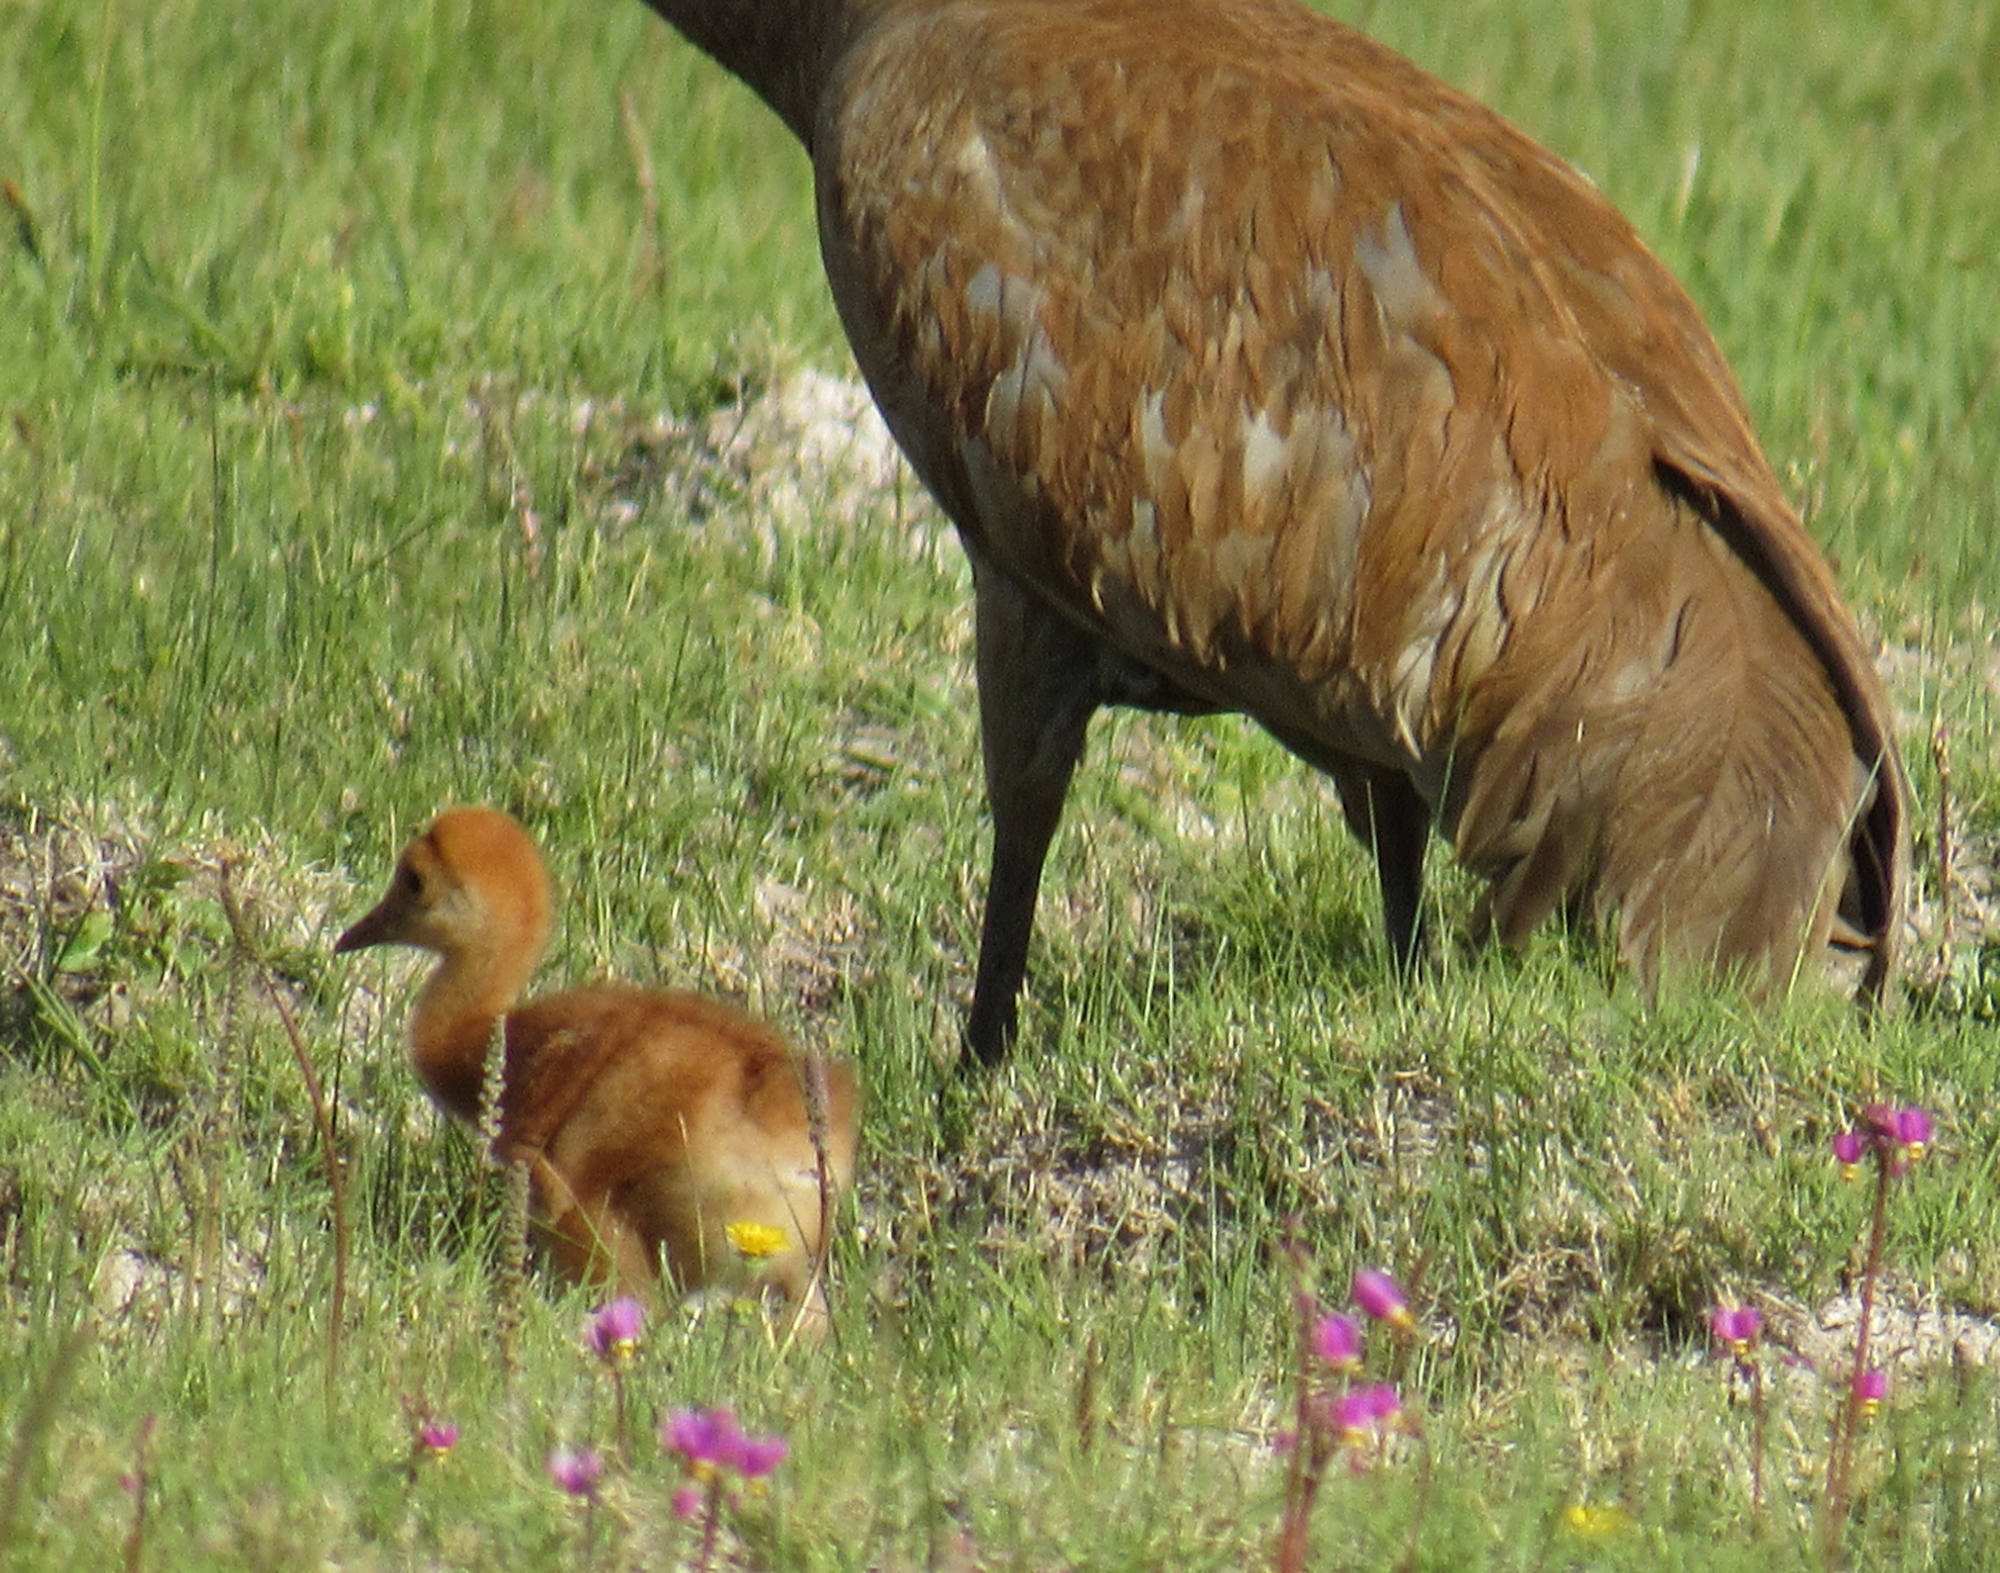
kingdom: Animalia
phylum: Chordata
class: Aves
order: Gruiformes
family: Gruidae
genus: Grus
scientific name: Grus canadensis
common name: Sandhill crane
